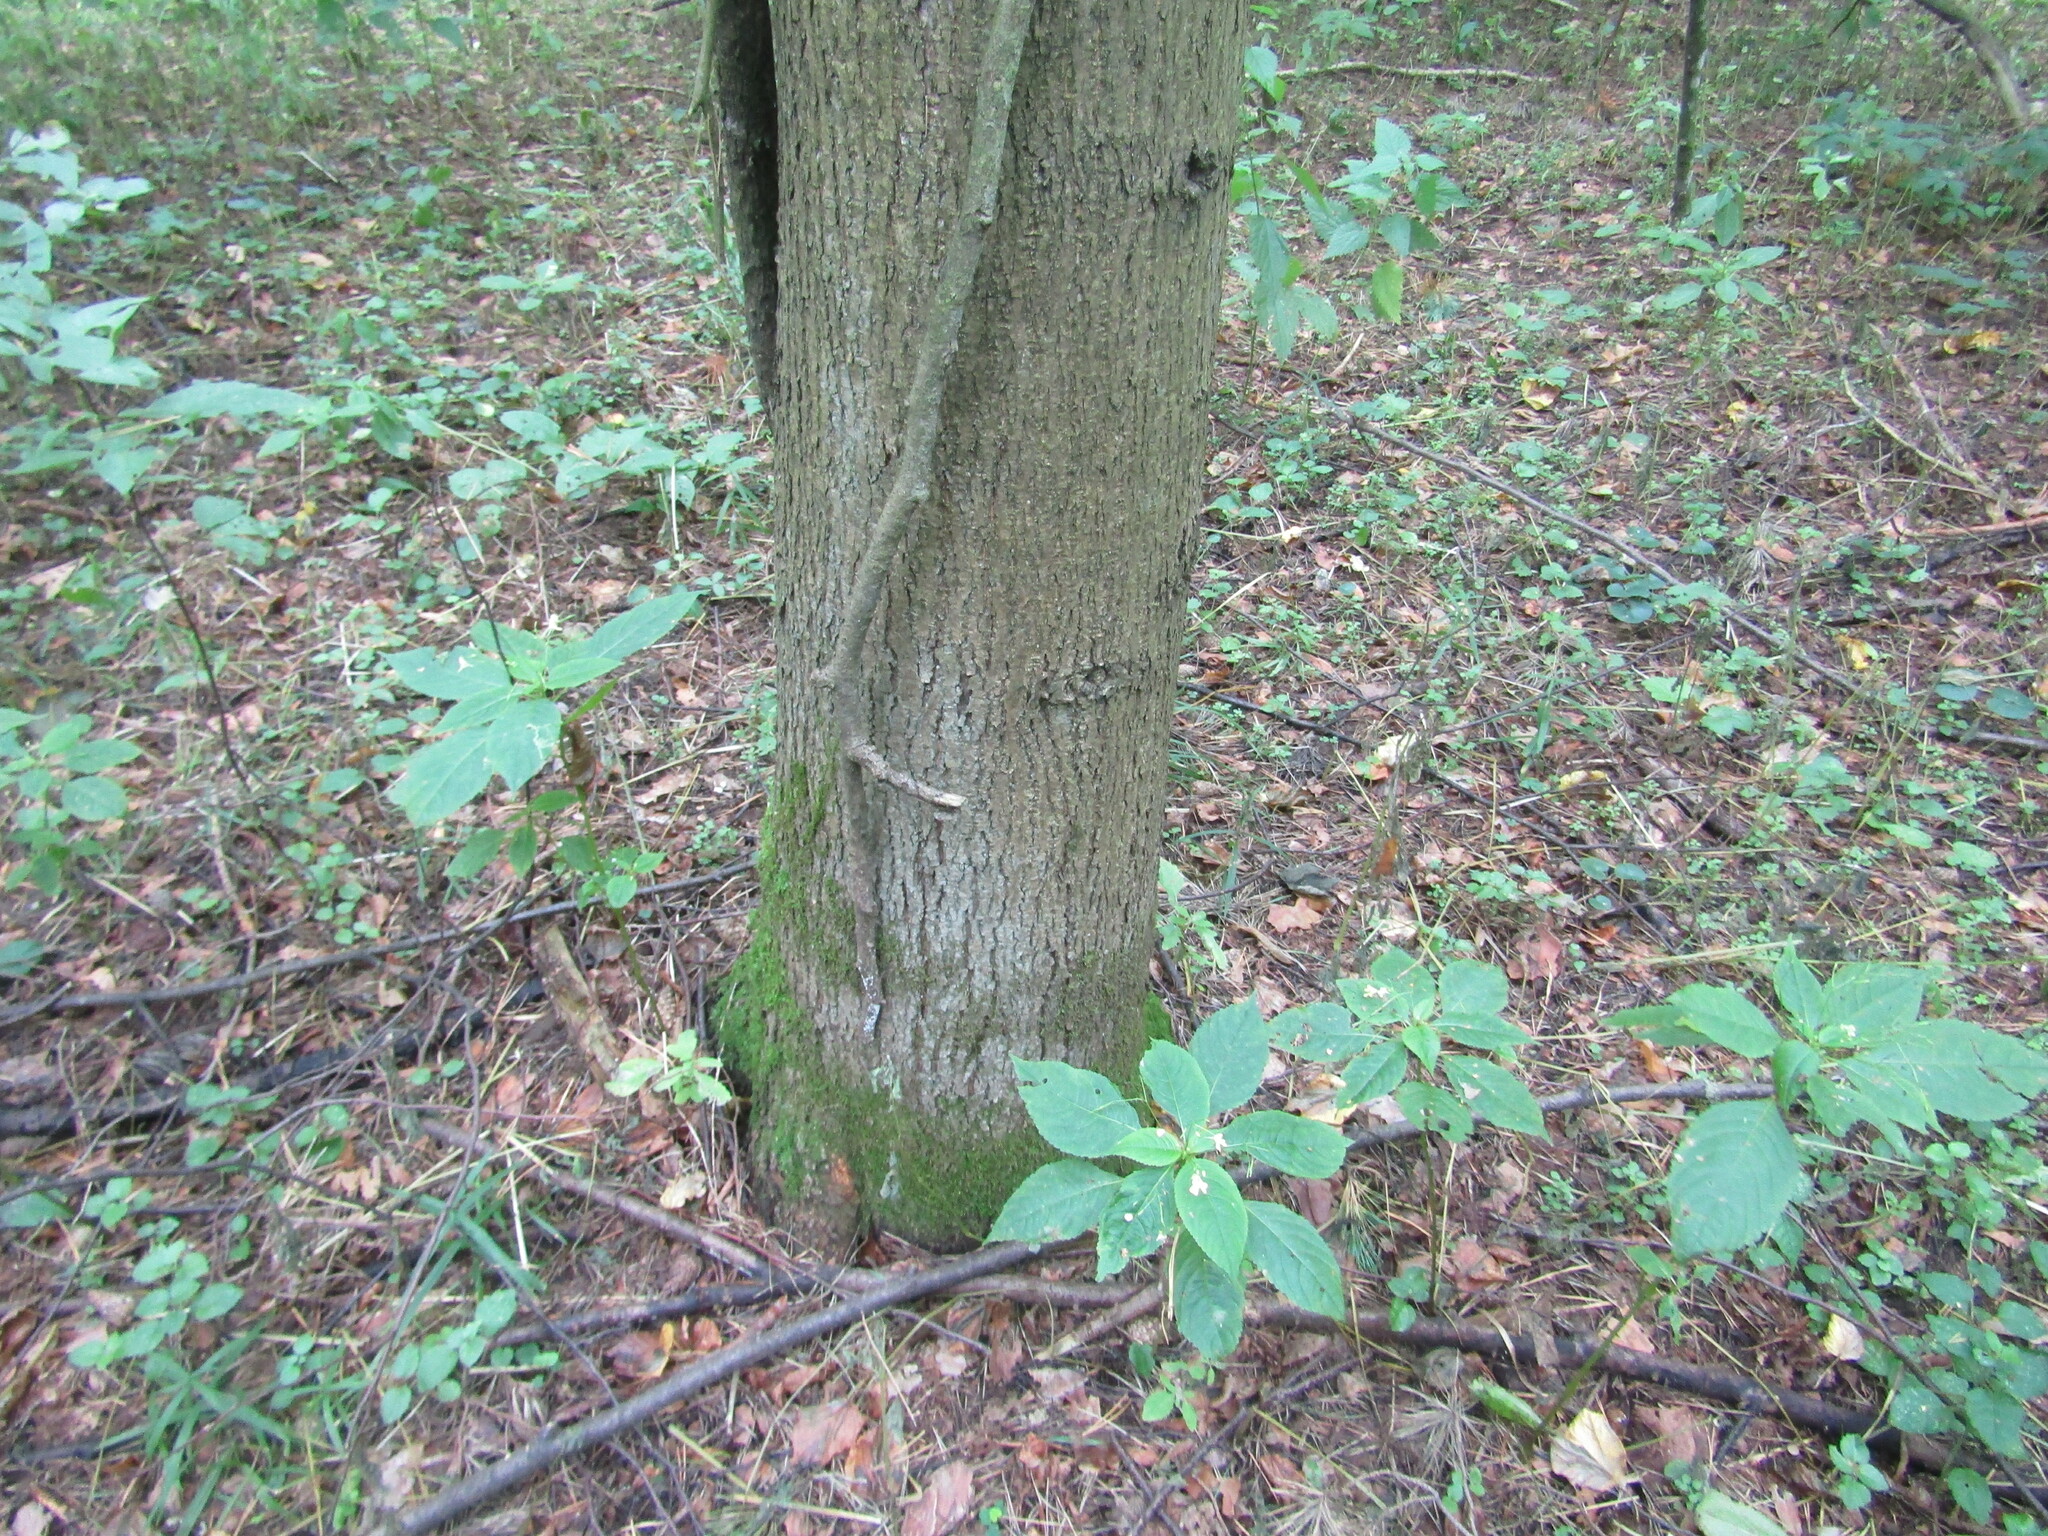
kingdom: Plantae
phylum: Tracheophyta
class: Magnoliopsida
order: Malvales
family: Malvaceae
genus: Tilia
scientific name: Tilia cordata
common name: Small-leaved lime
